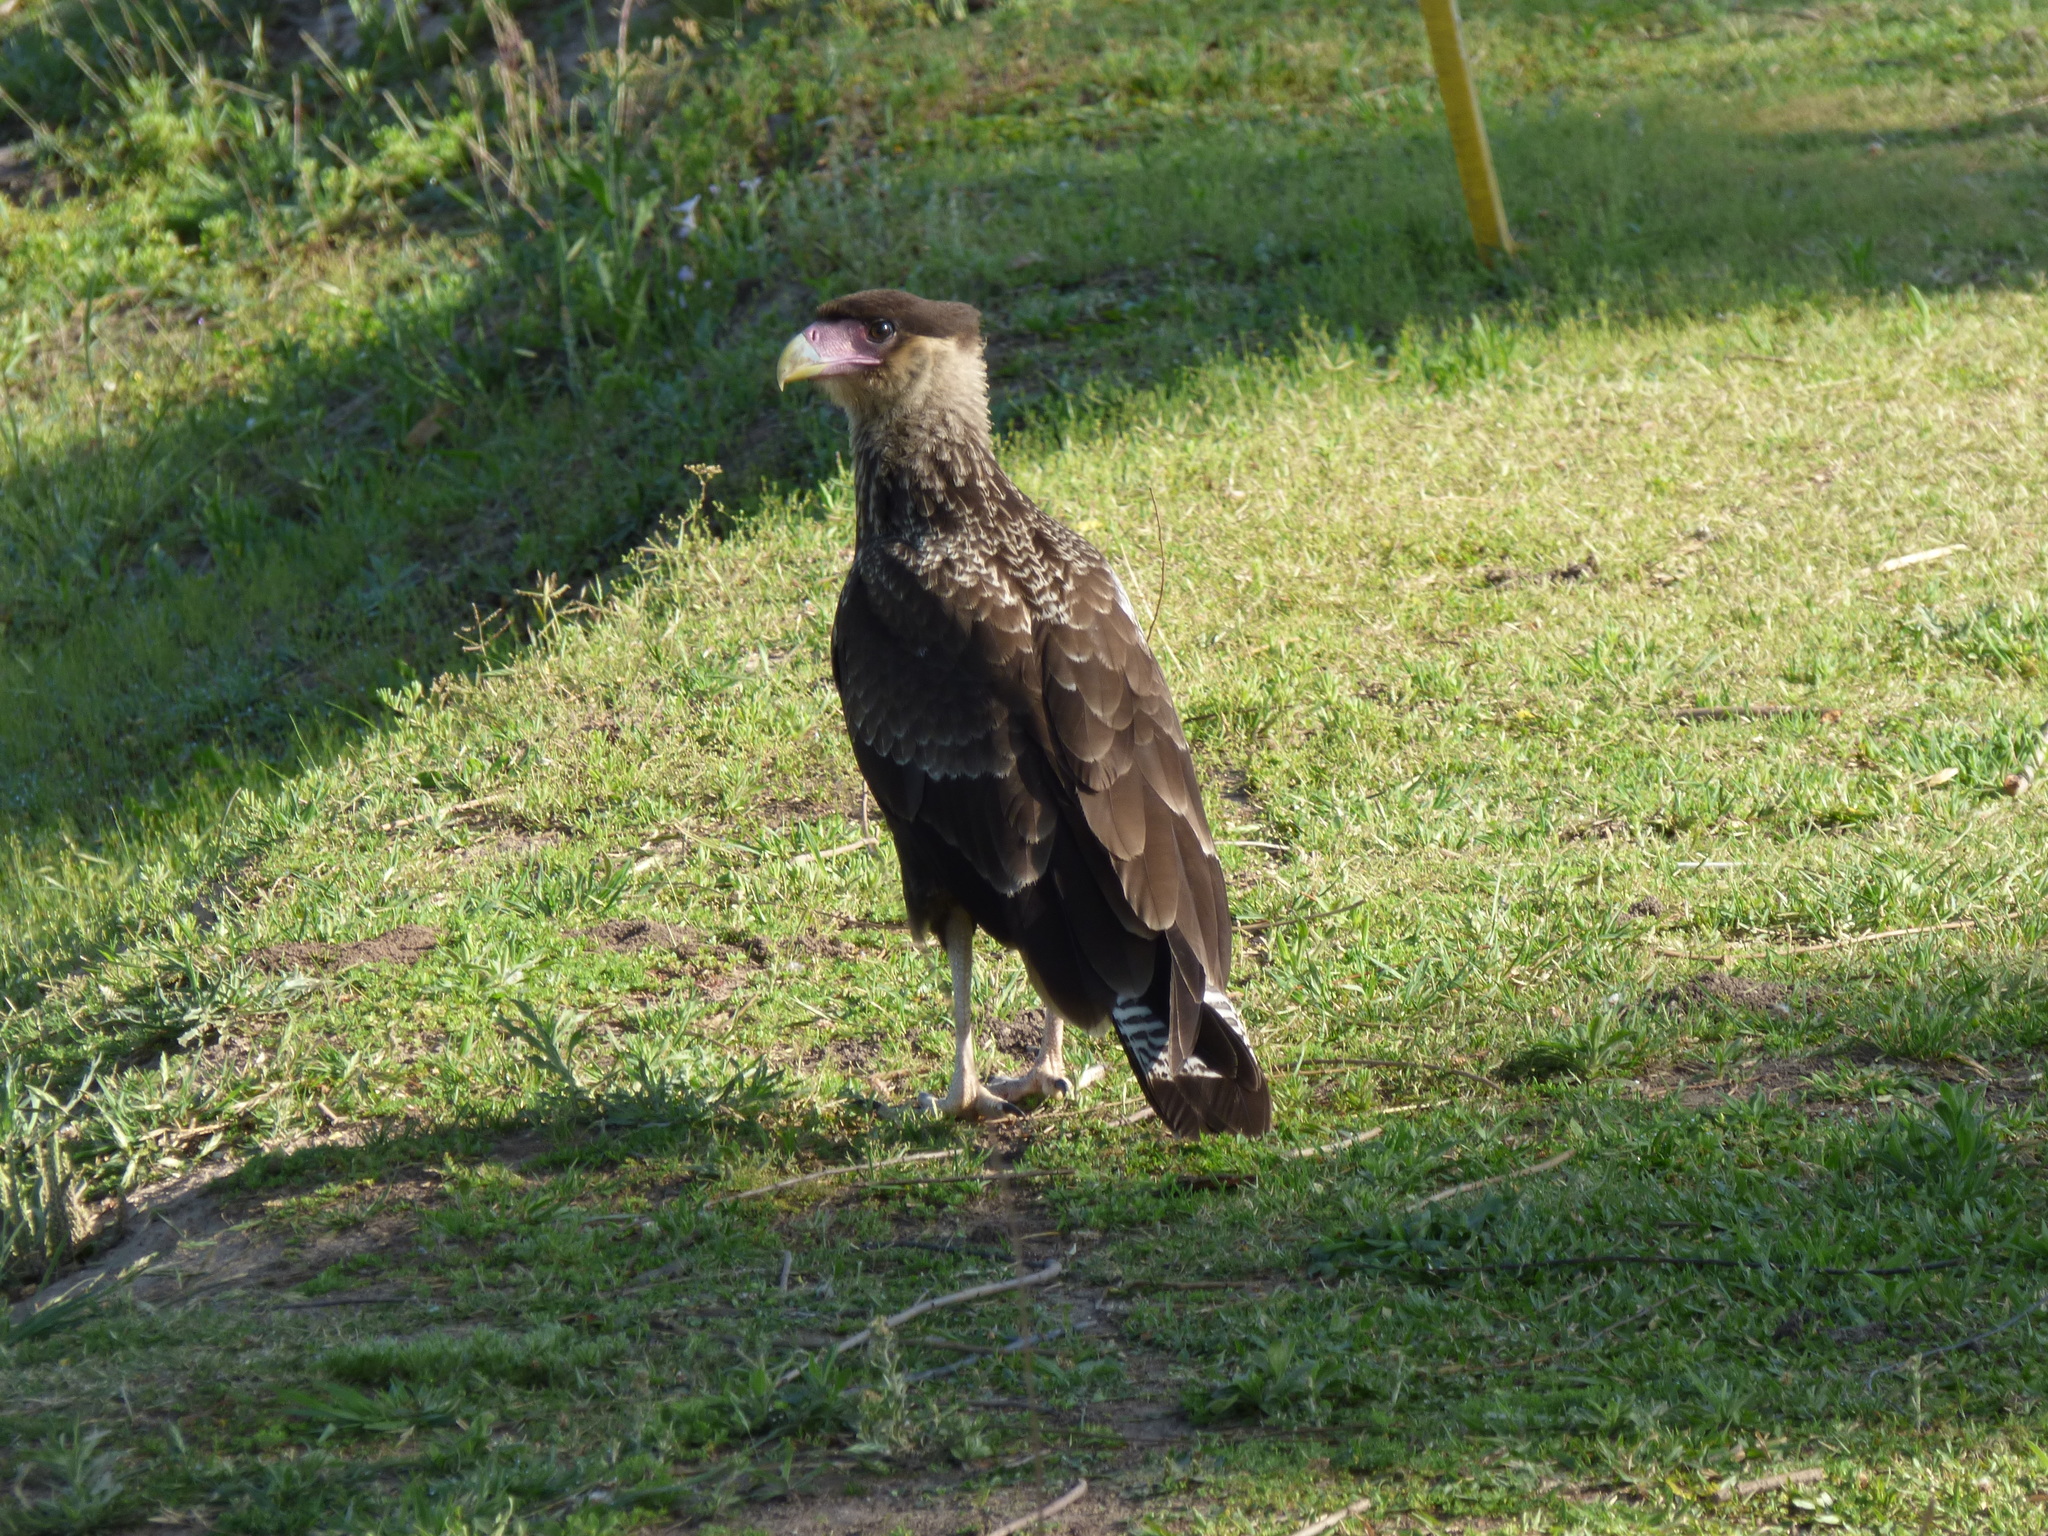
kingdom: Animalia
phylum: Chordata
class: Aves
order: Falconiformes
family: Falconidae
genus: Caracara
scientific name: Caracara plancus
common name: Southern caracara
